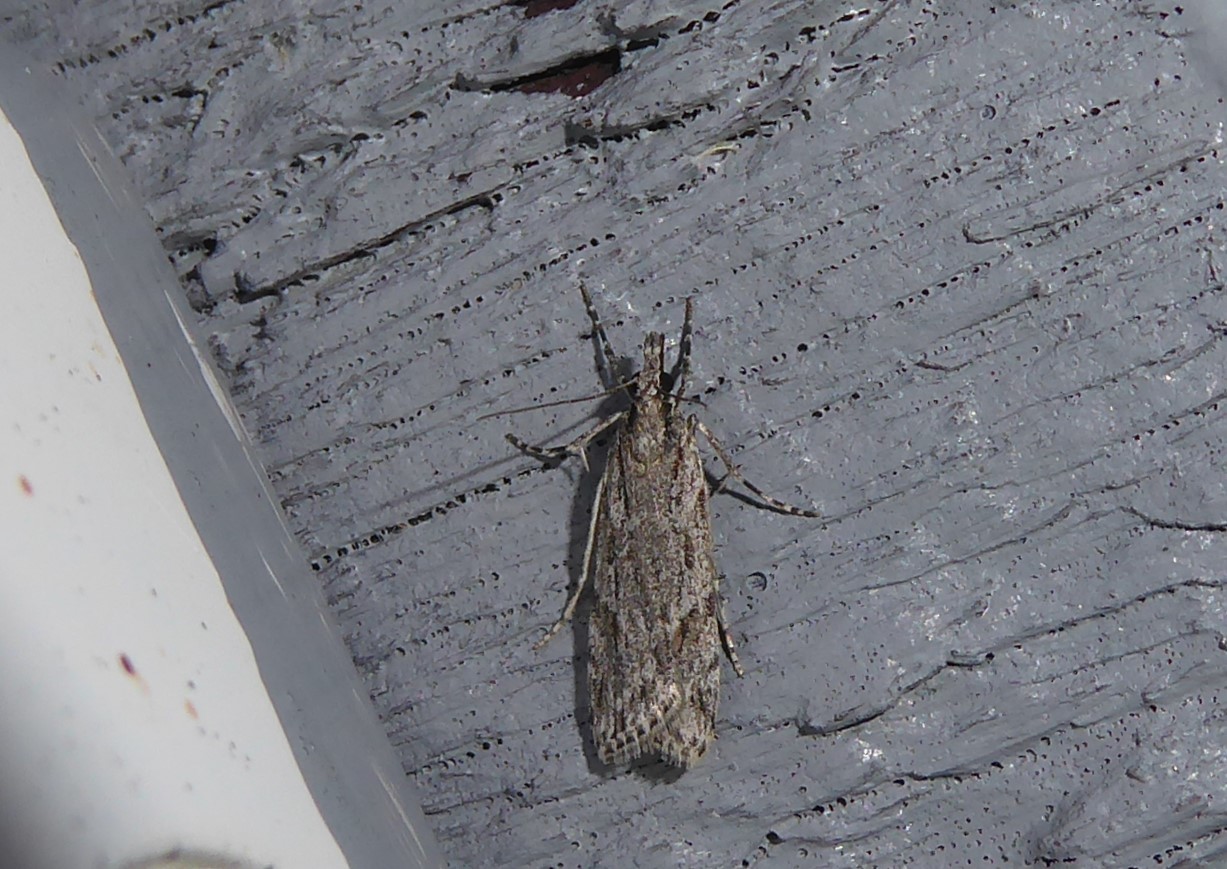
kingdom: Animalia
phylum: Arthropoda
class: Insecta
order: Lepidoptera
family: Crambidae
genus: Scoparia
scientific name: Scoparia chalicodes
